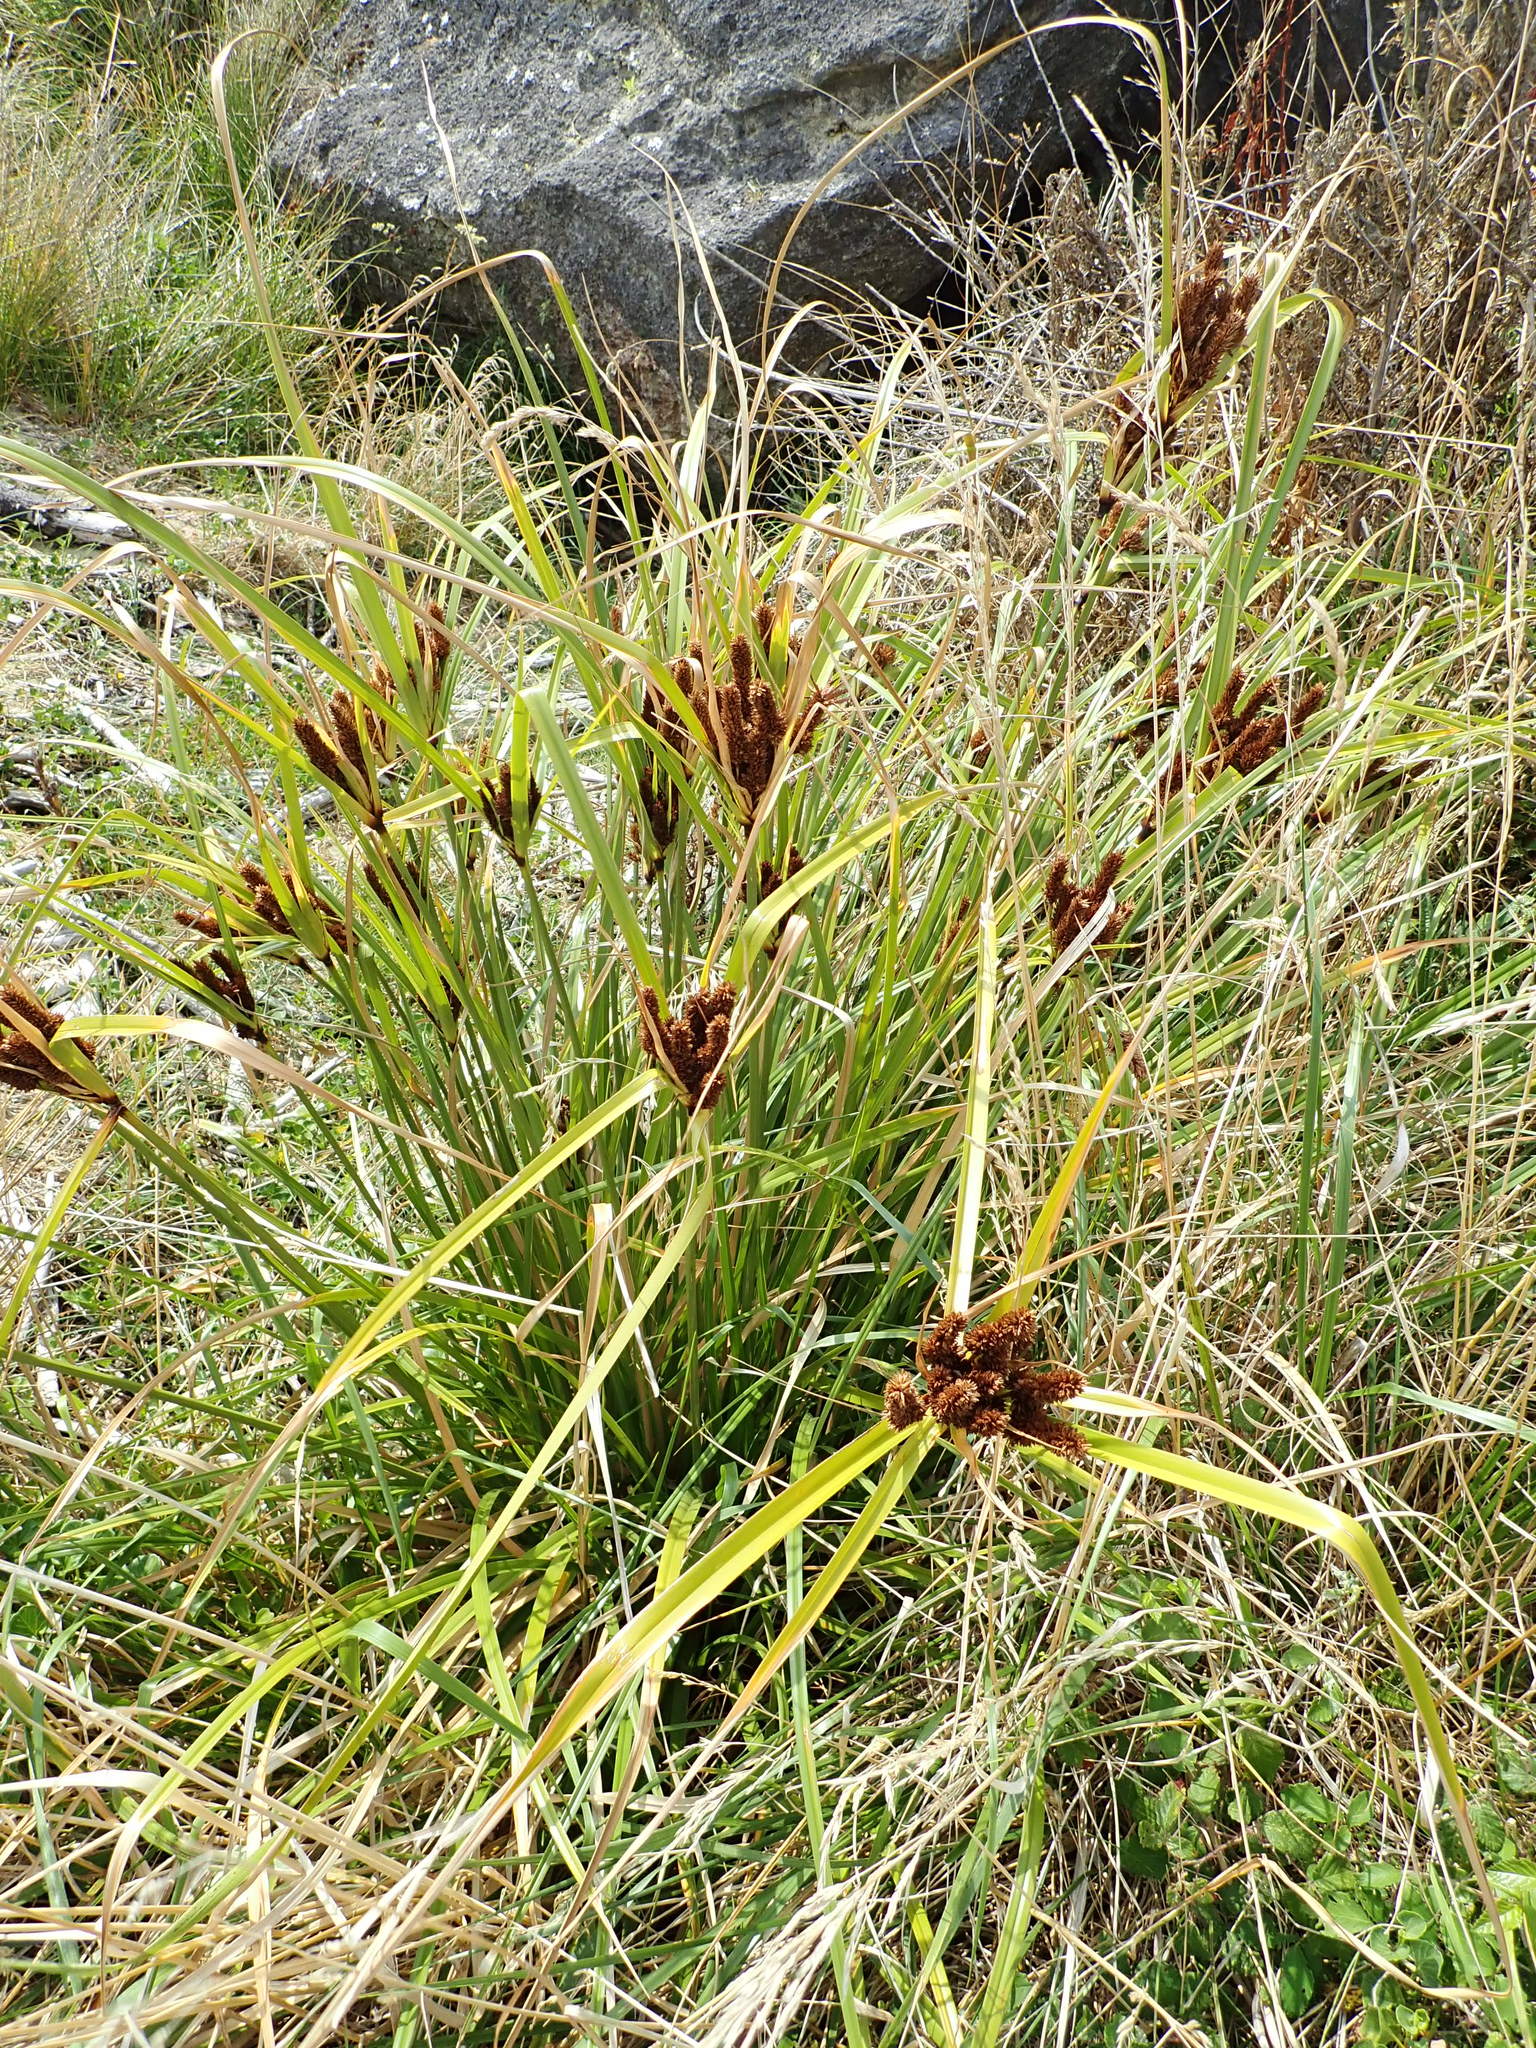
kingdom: Plantae
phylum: Tracheophyta
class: Liliopsida
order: Poales
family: Cyperaceae
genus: Cyperus
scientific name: Cyperus ustulatus
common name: Giant umbrella-sedge
